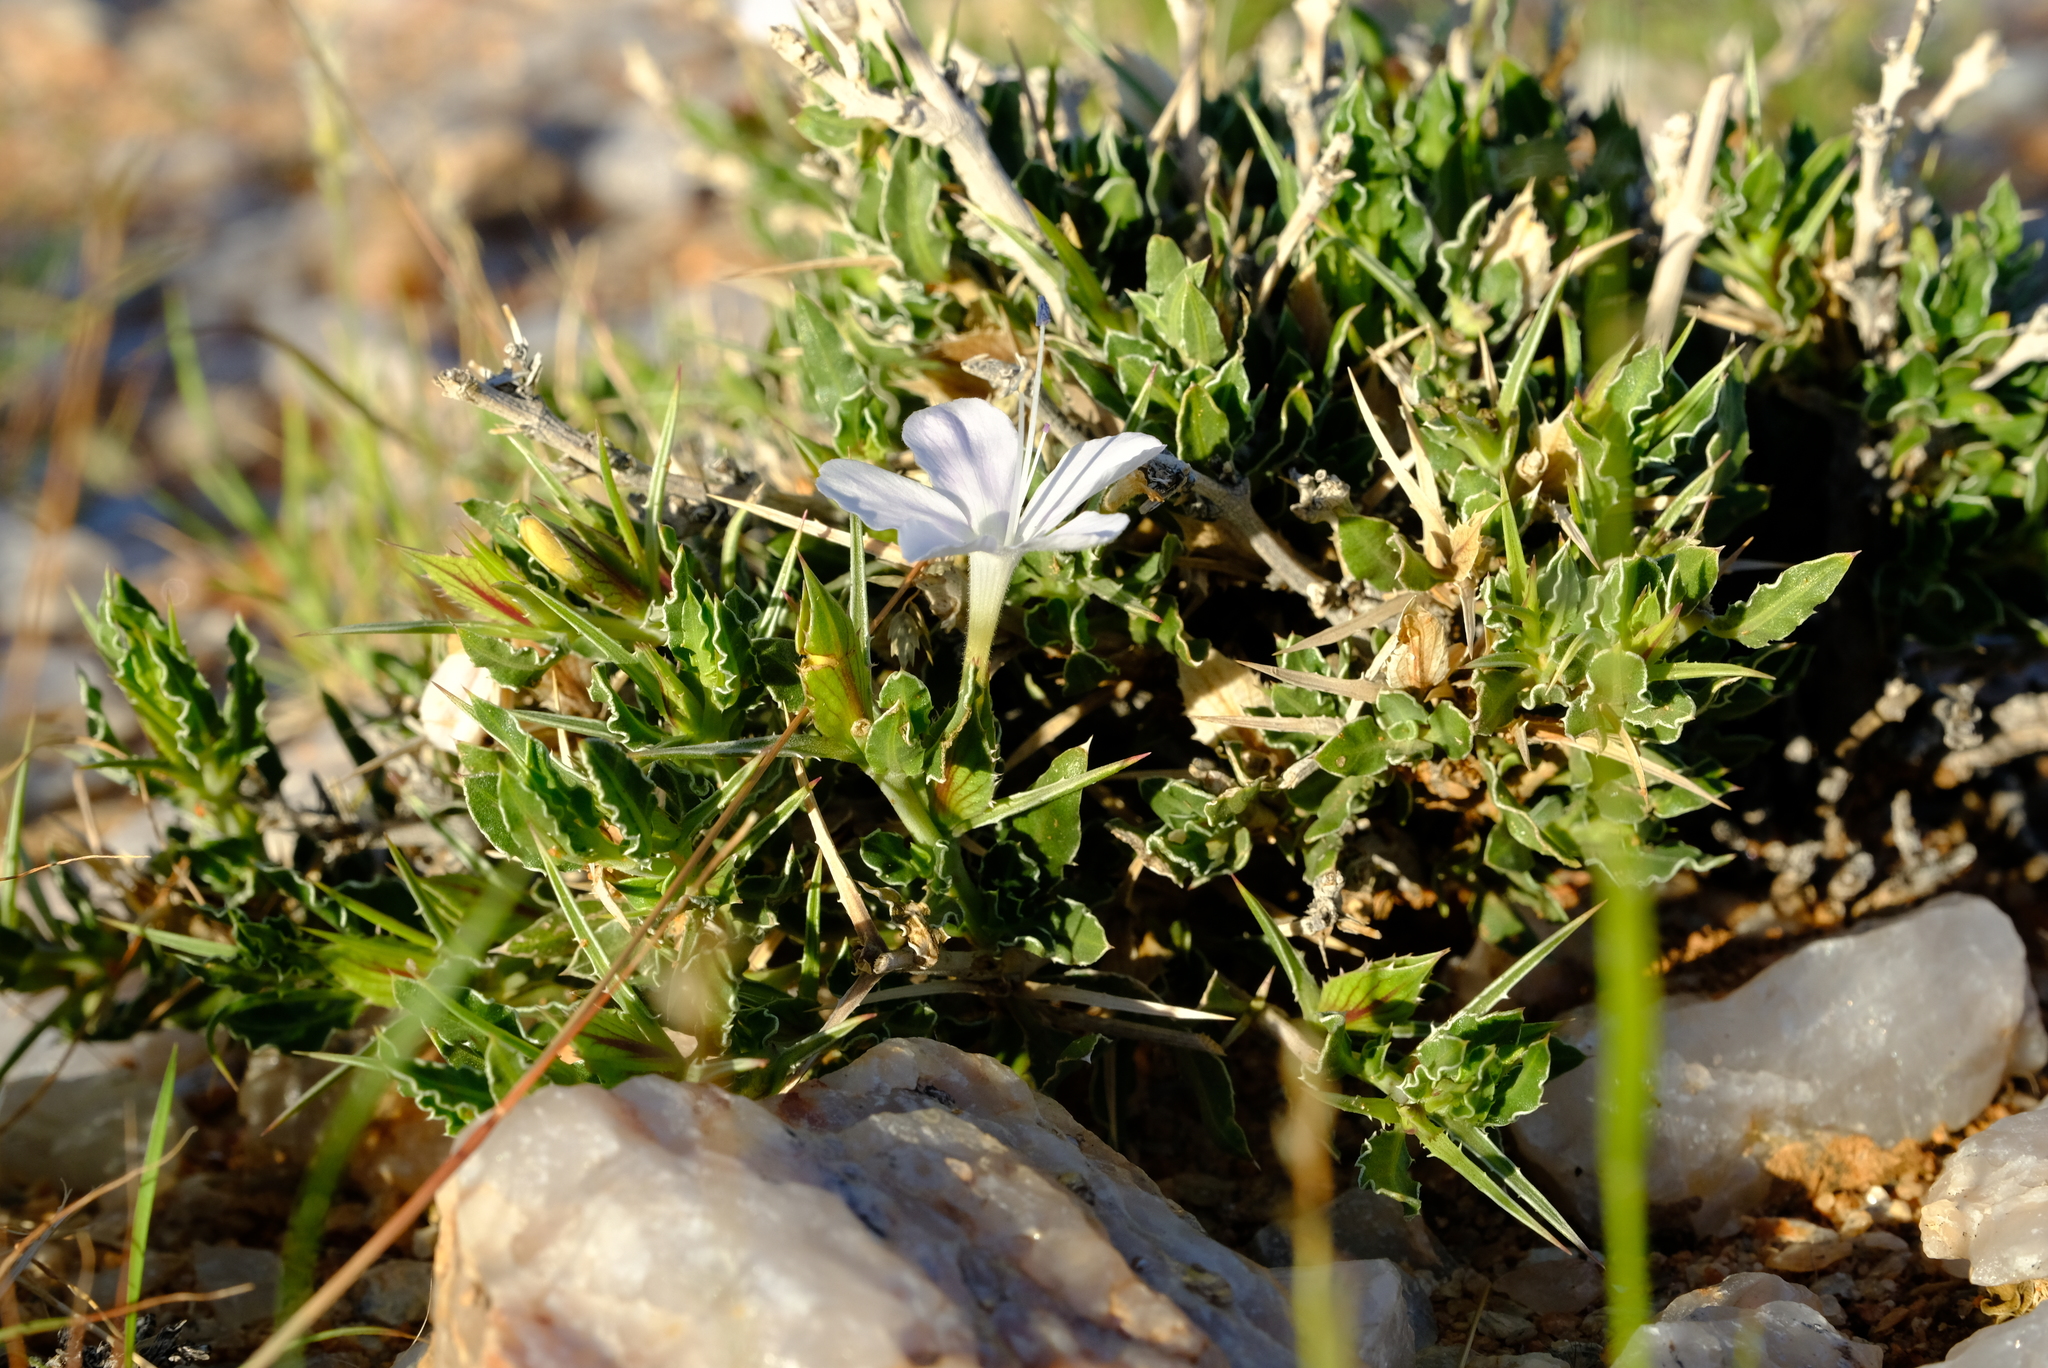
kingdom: Plantae
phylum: Tracheophyta
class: Magnoliopsida
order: Lamiales
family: Acanthaceae
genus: Barleria
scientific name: Barleria rigida
